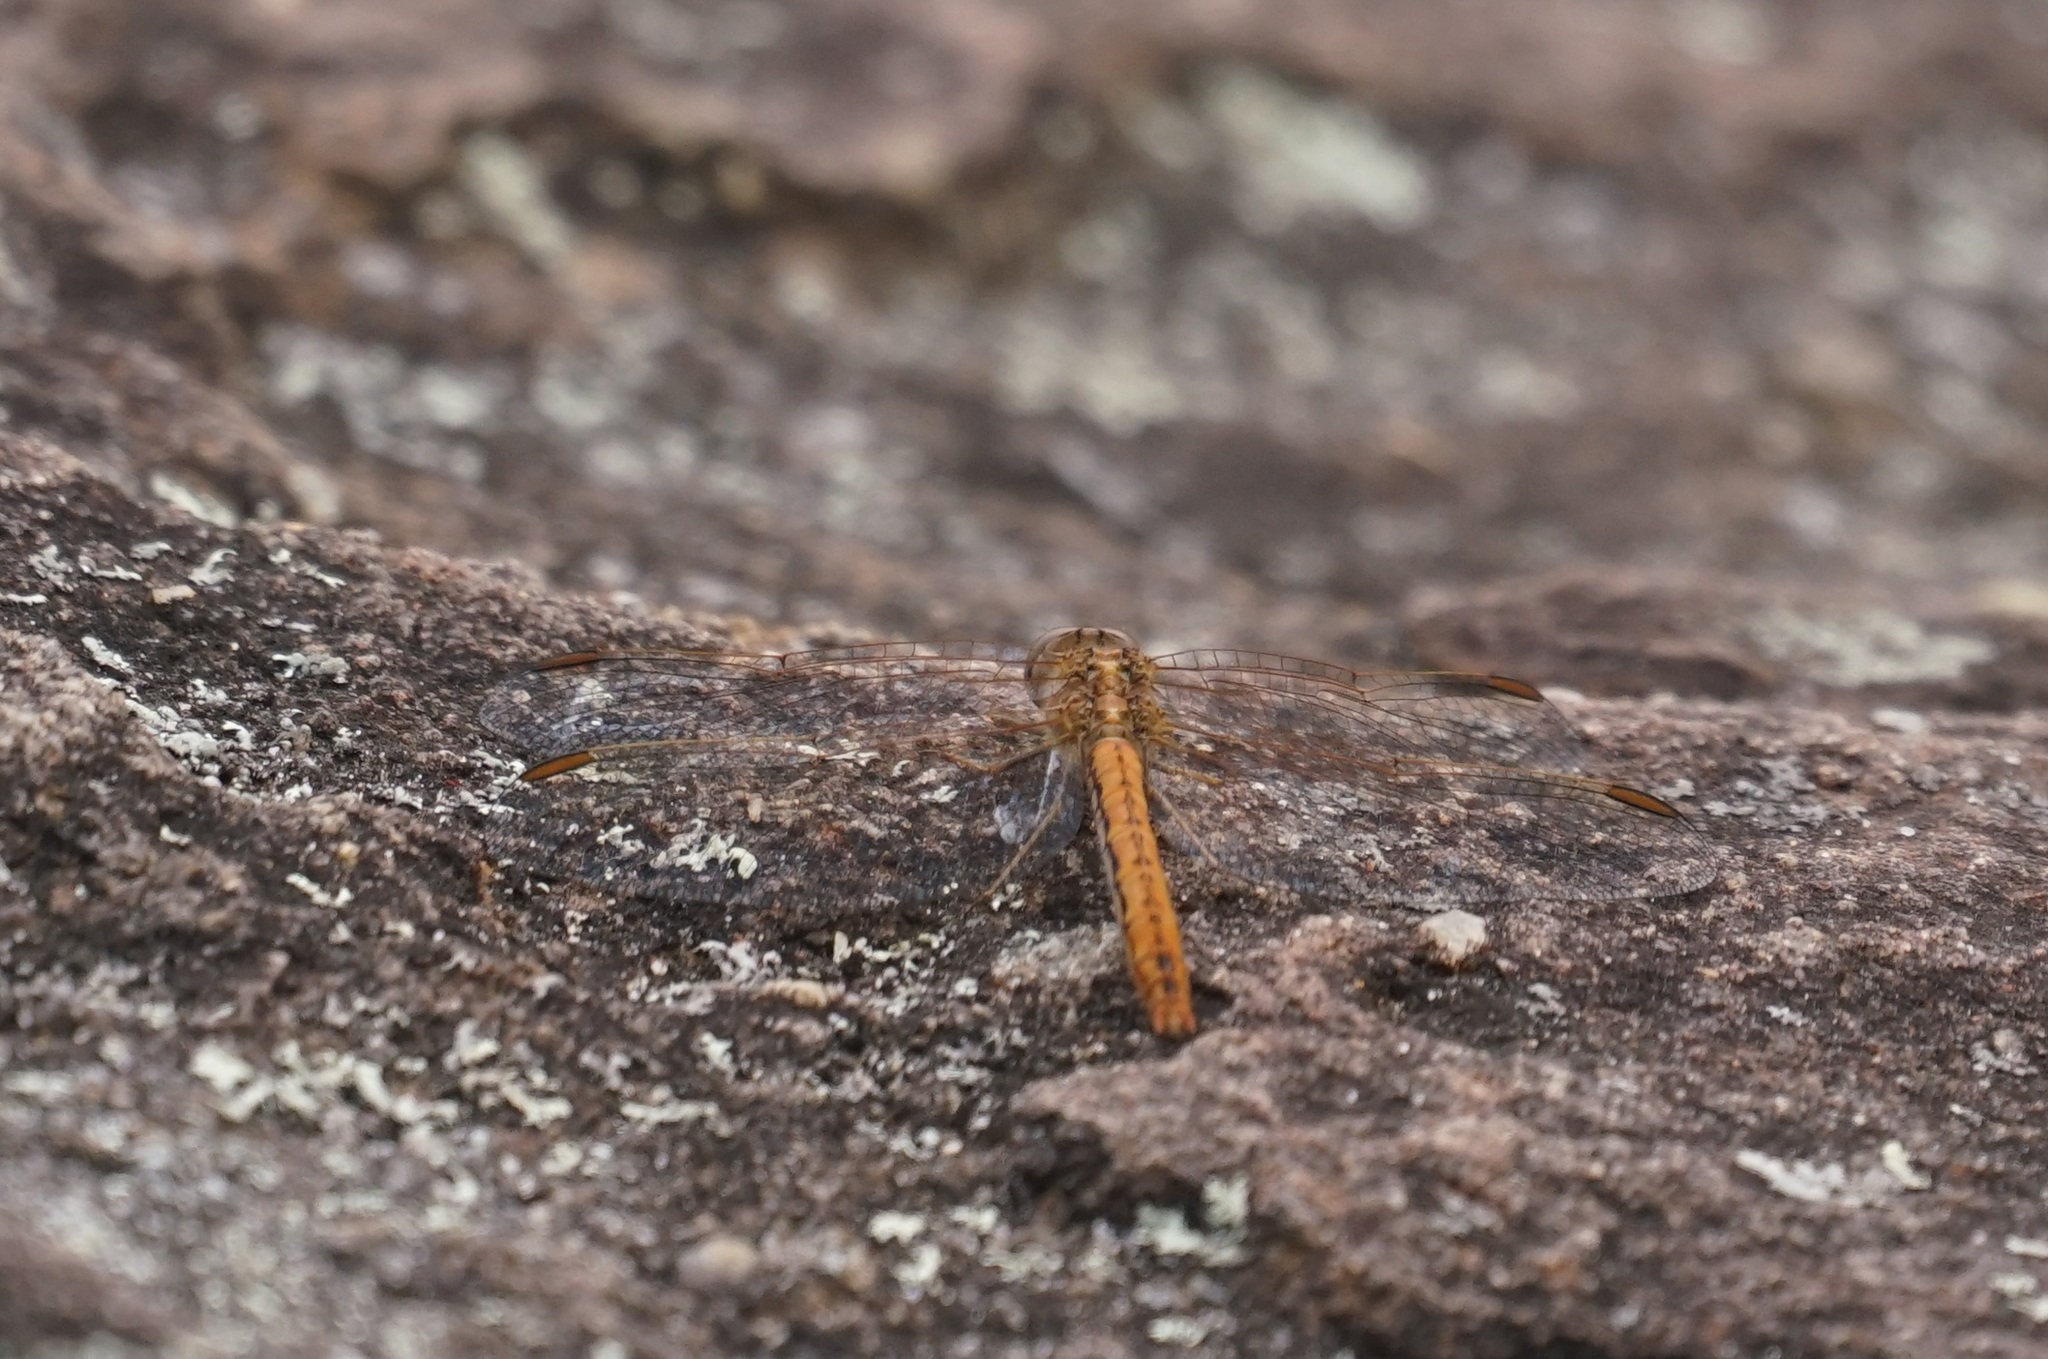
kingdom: Animalia
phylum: Arthropoda
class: Insecta
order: Odonata
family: Libellulidae
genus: Diplacodes
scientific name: Diplacodes haematodes
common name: Scarlet percher
